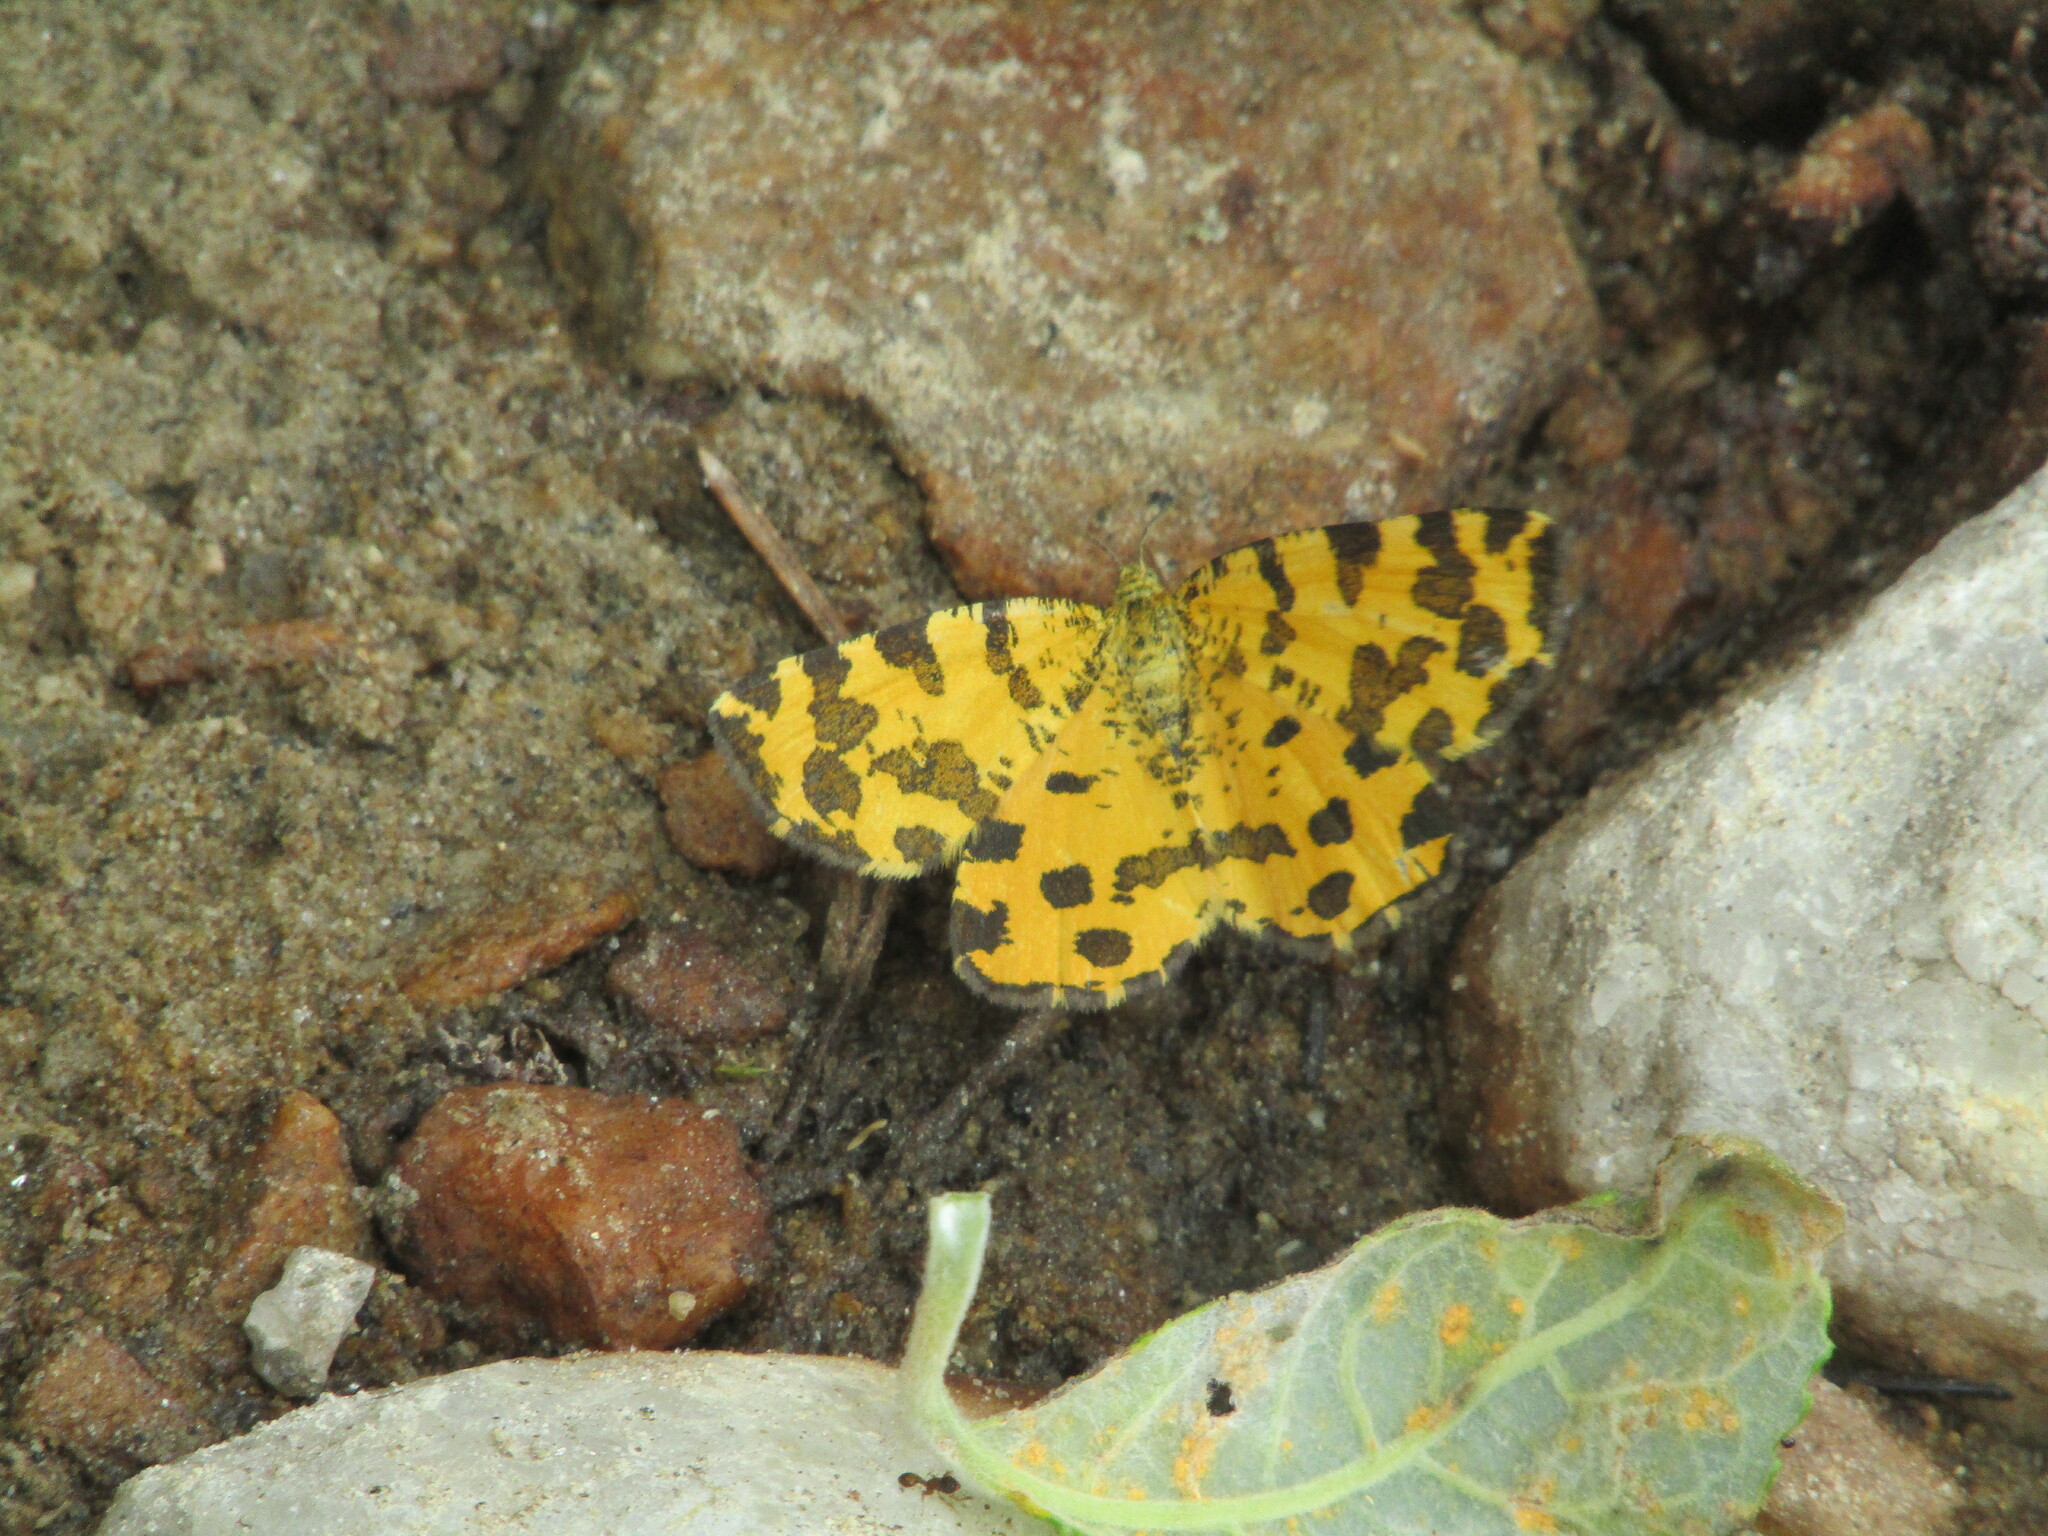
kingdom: Animalia
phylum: Arthropoda
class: Insecta
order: Lepidoptera
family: Geometridae
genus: Pseudopanthera
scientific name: Pseudopanthera macularia
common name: Speckled yellow
